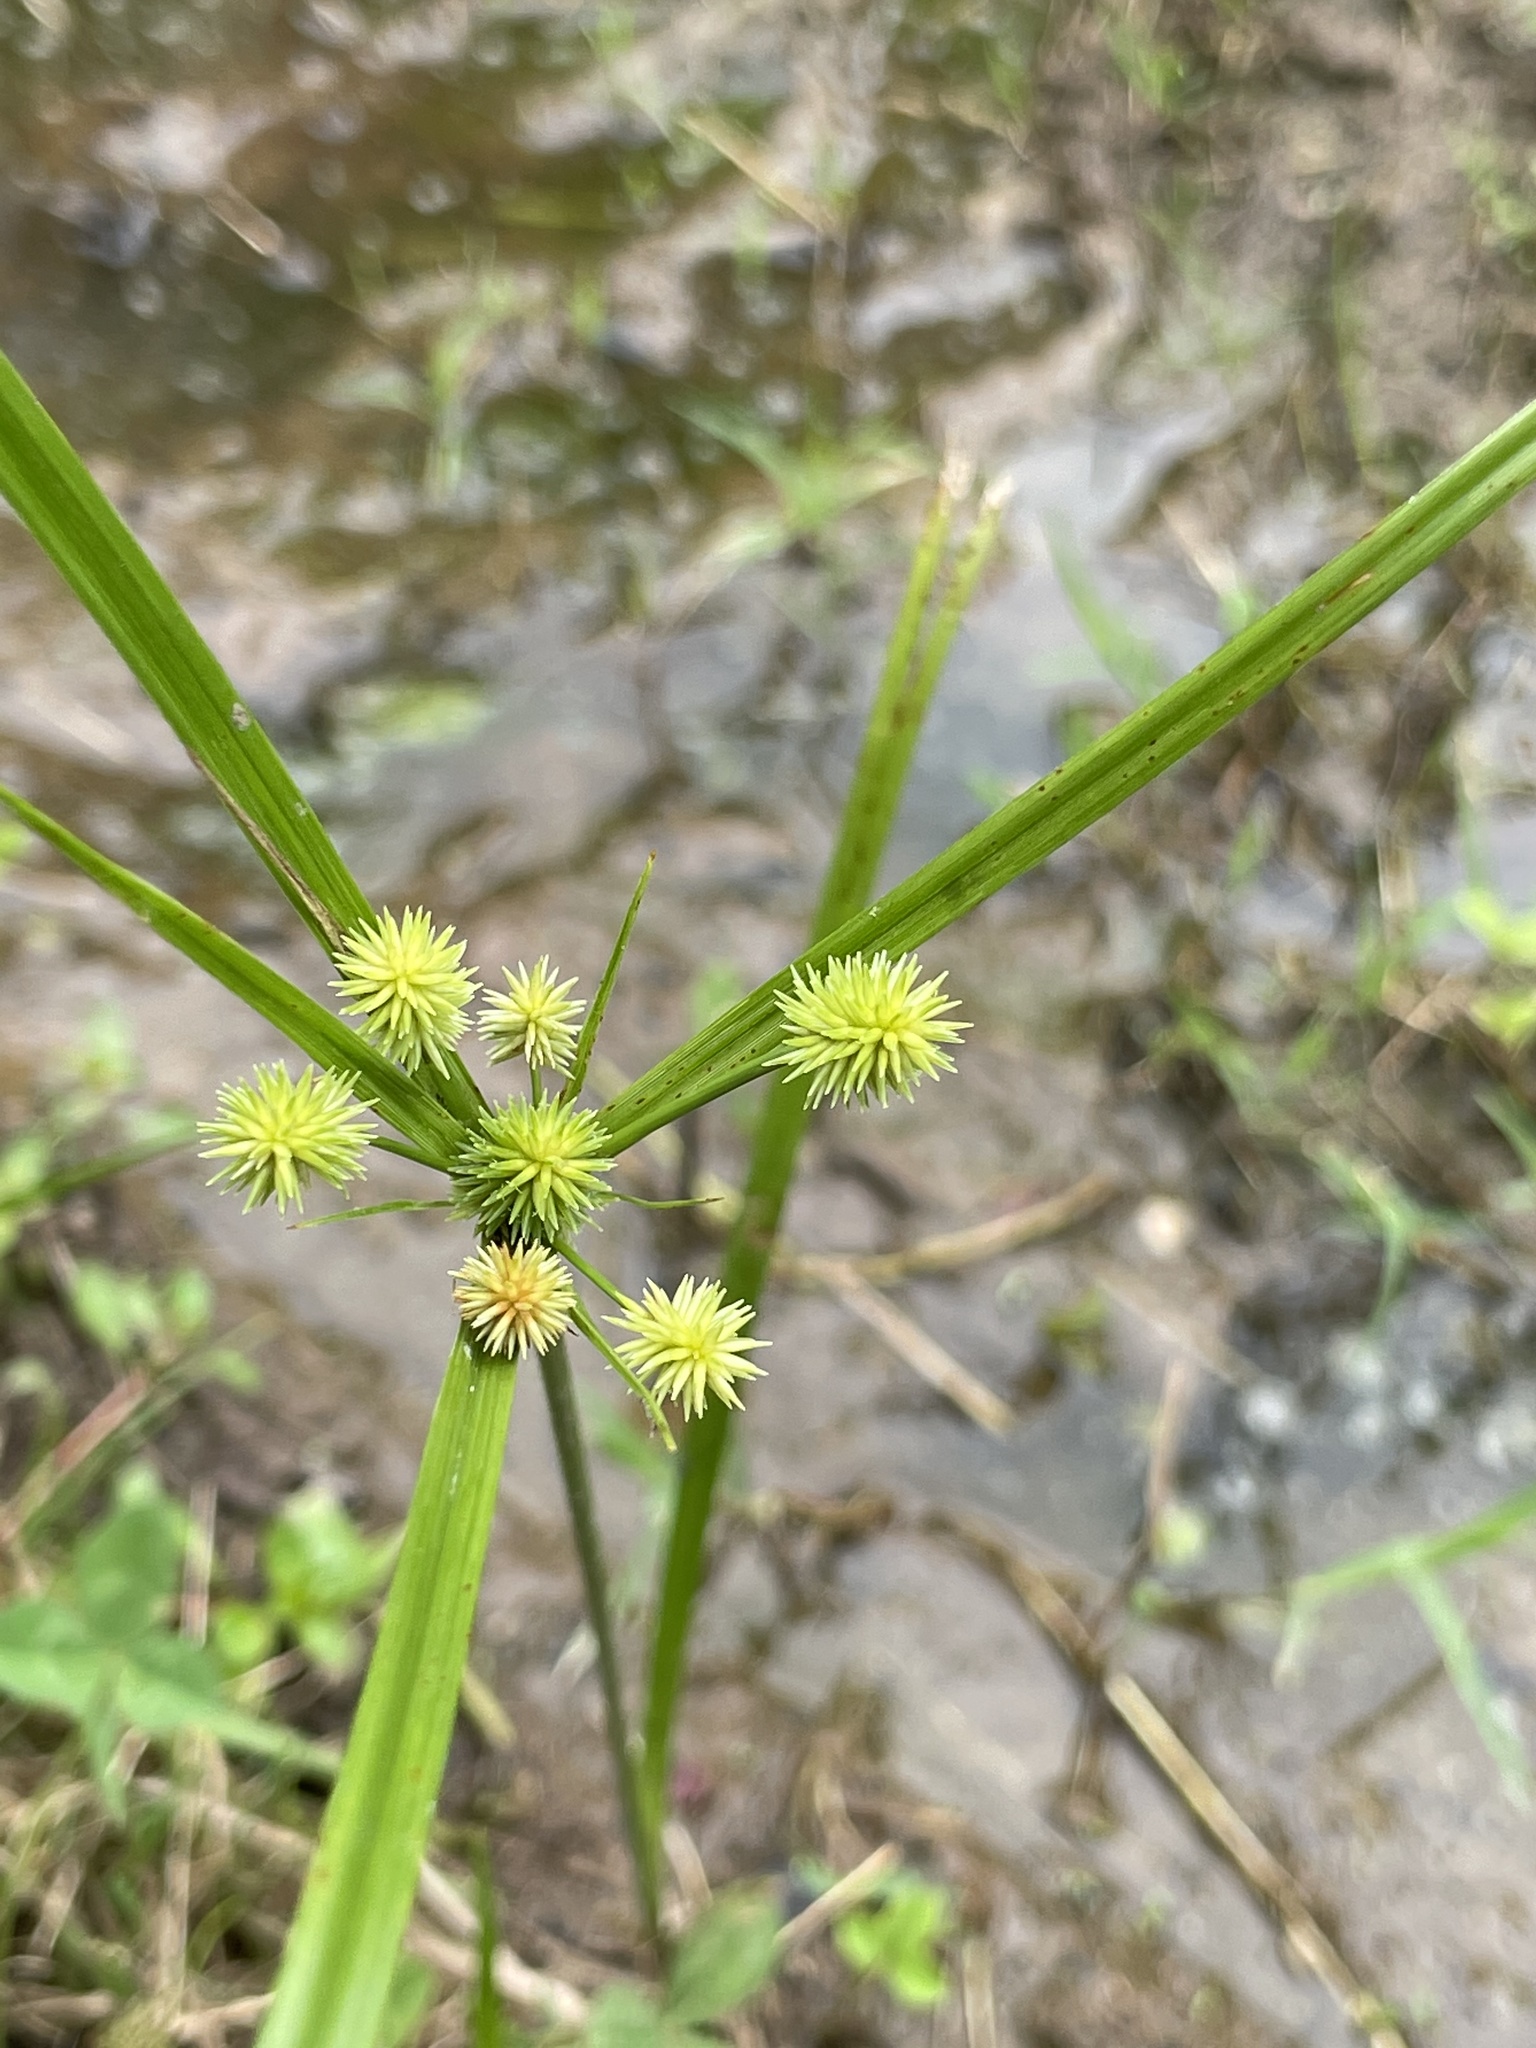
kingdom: Plantae
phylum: Tracheophyta
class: Liliopsida
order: Poales
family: Cyperaceae
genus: Cyperus
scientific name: Cyperus echinatus
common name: Teasel sedge
